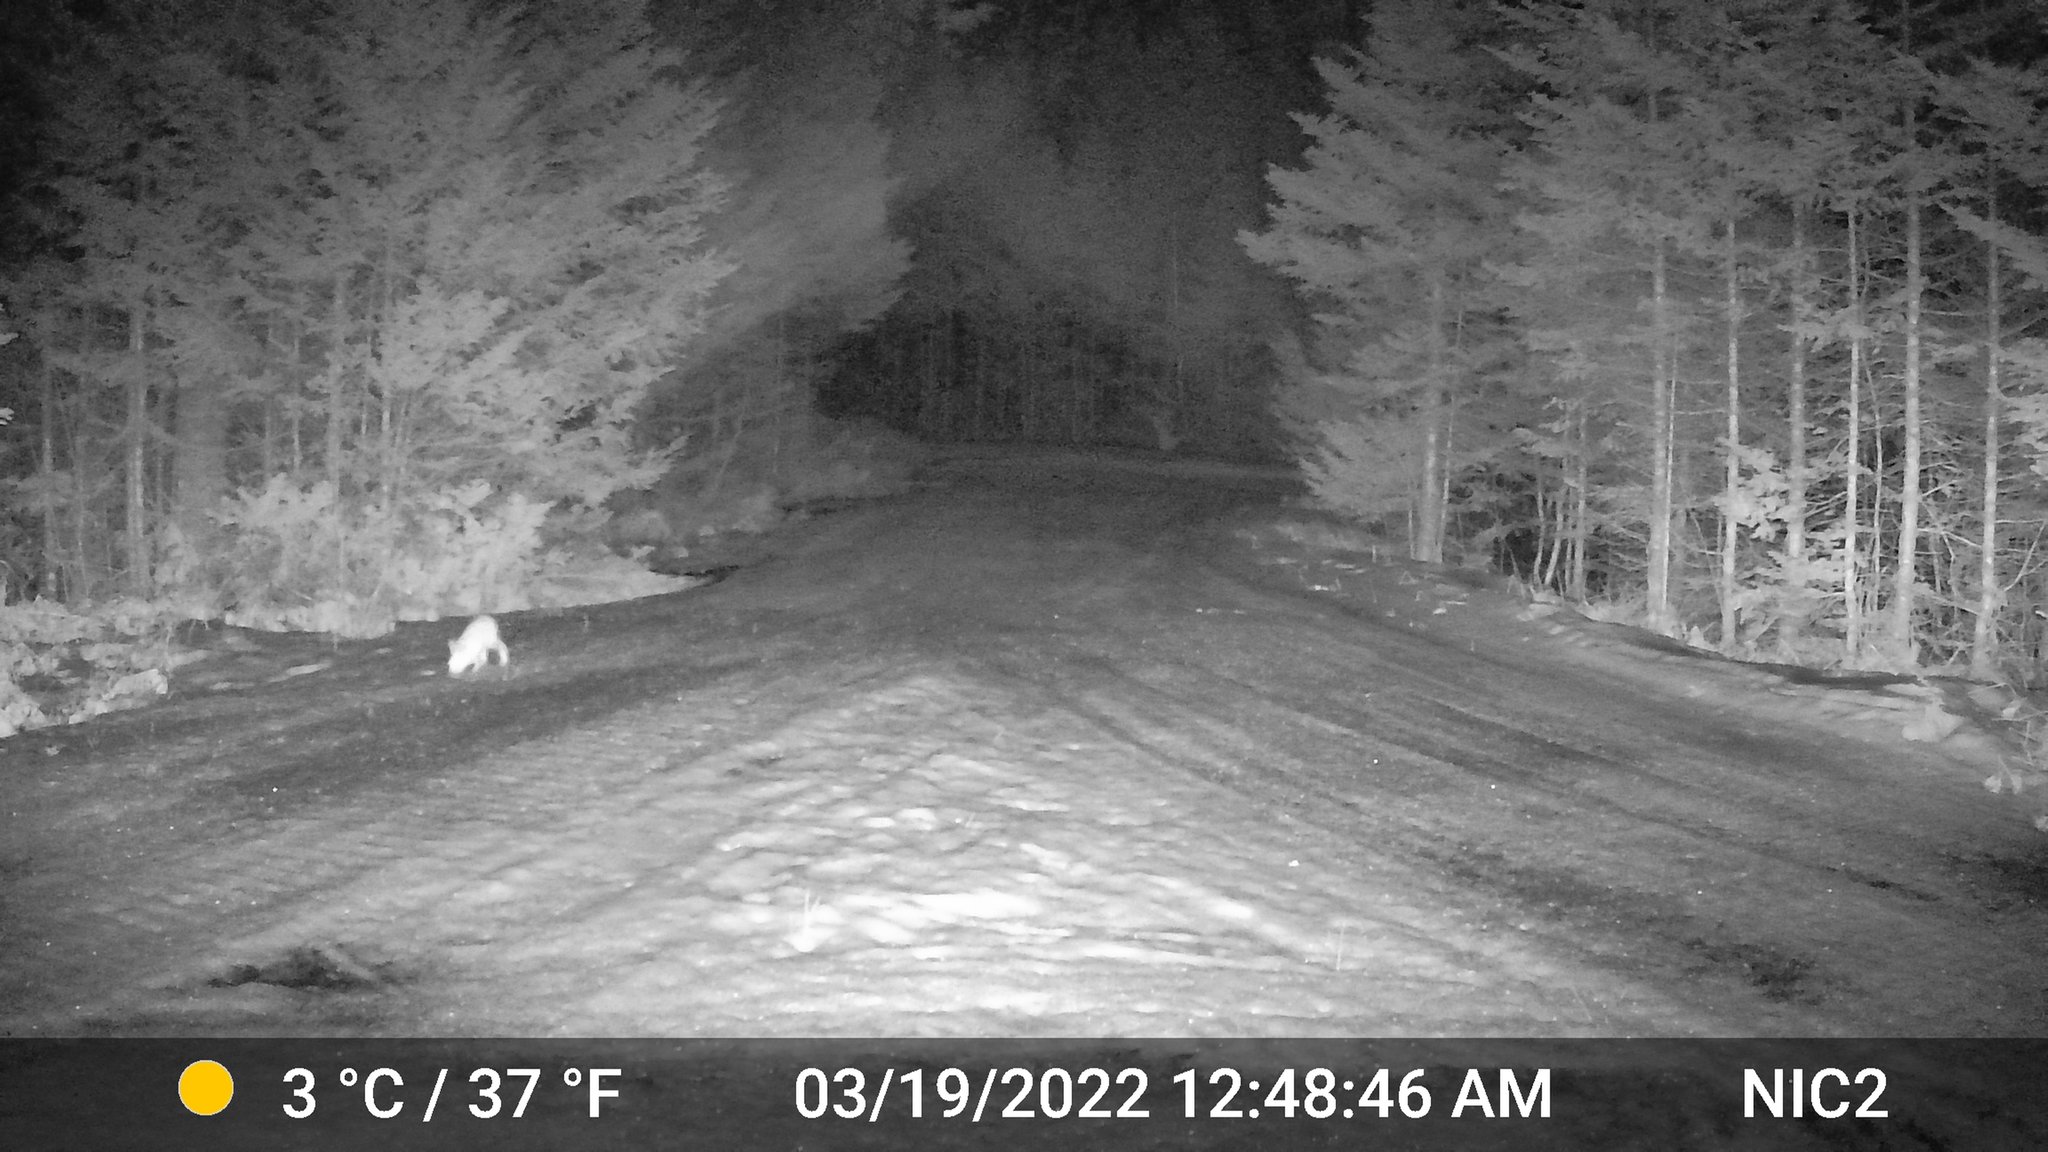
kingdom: Animalia
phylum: Chordata
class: Mammalia
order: Lagomorpha
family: Leporidae
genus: Lepus
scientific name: Lepus americanus
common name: Snowshoe hare
